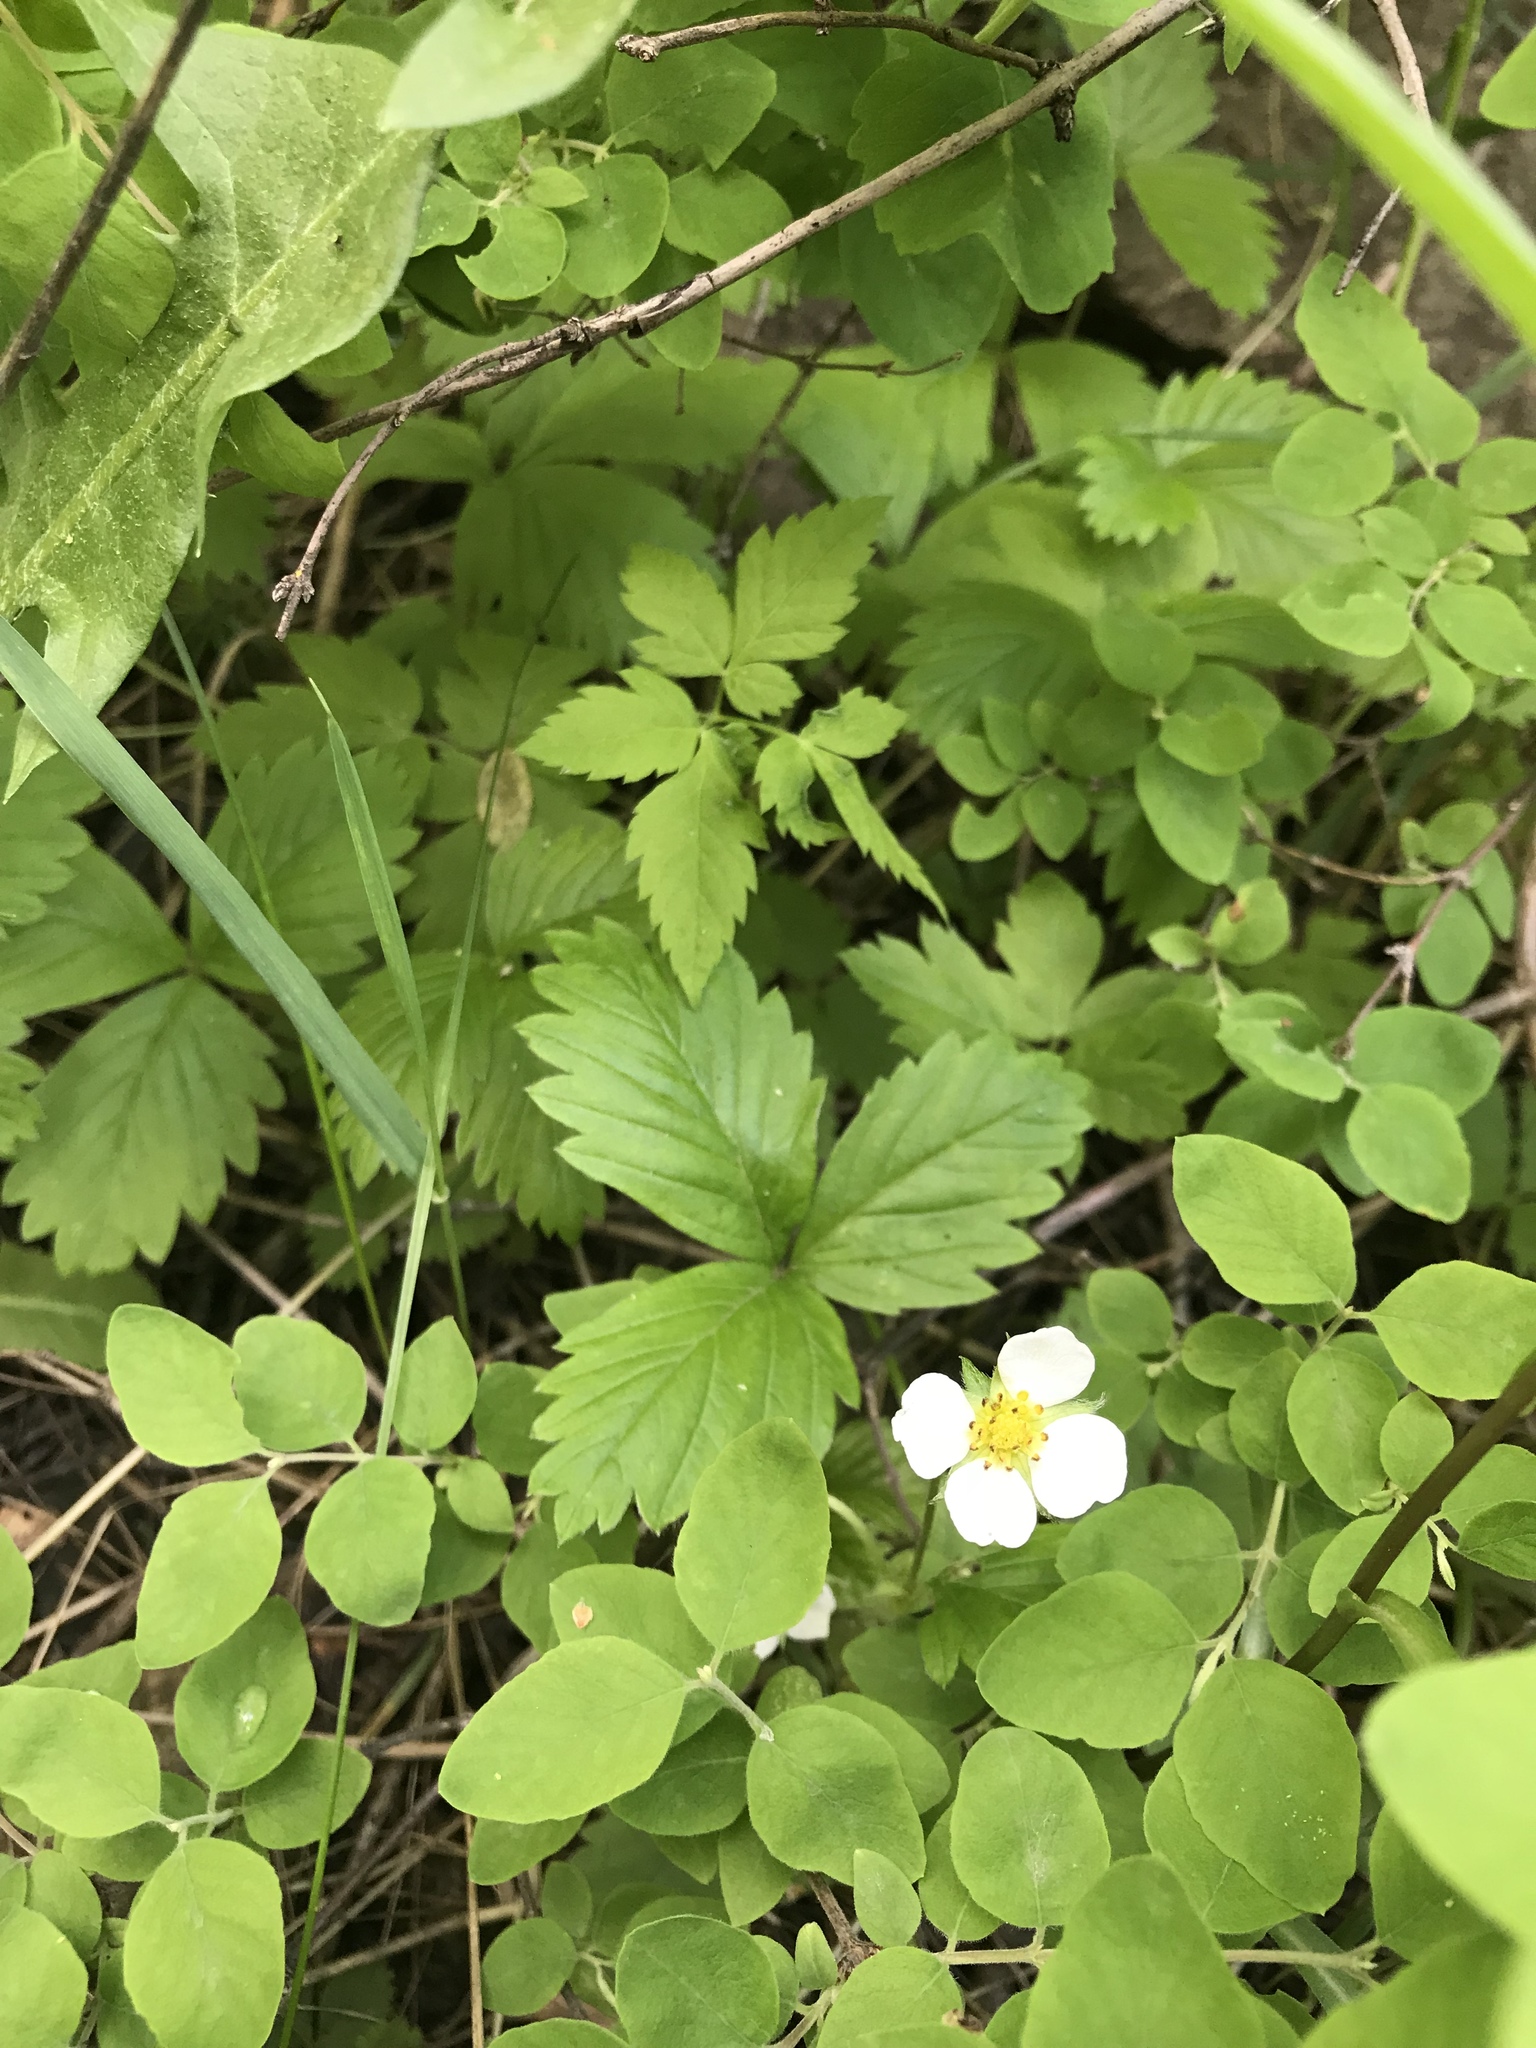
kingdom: Plantae
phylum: Tracheophyta
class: Magnoliopsida
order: Rosales
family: Rosaceae
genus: Fragaria
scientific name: Fragaria vesca
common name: Wild strawberry
